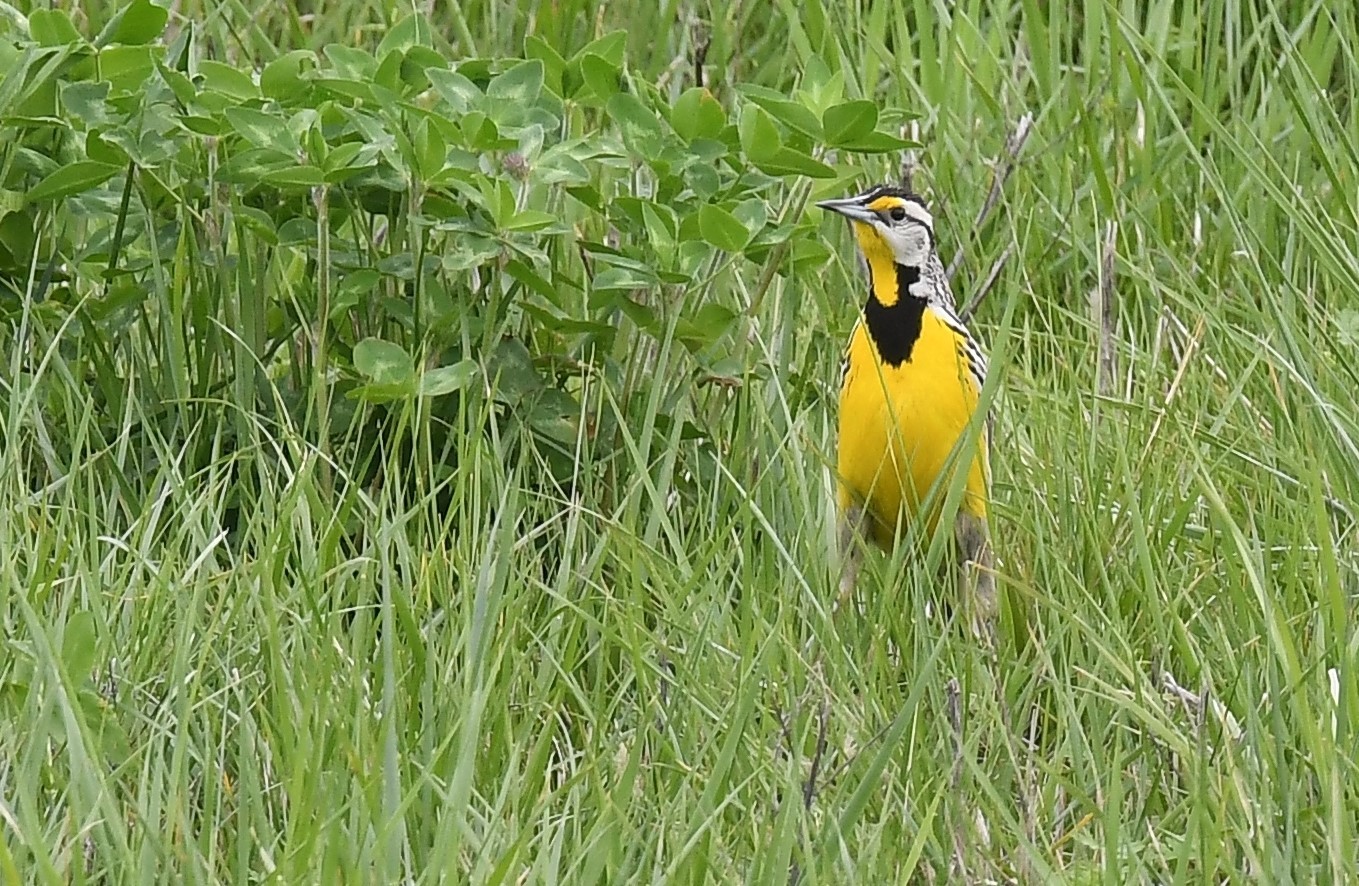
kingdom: Animalia
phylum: Chordata
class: Aves
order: Passeriformes
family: Icteridae
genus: Sturnella
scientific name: Sturnella magna
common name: Eastern meadowlark
